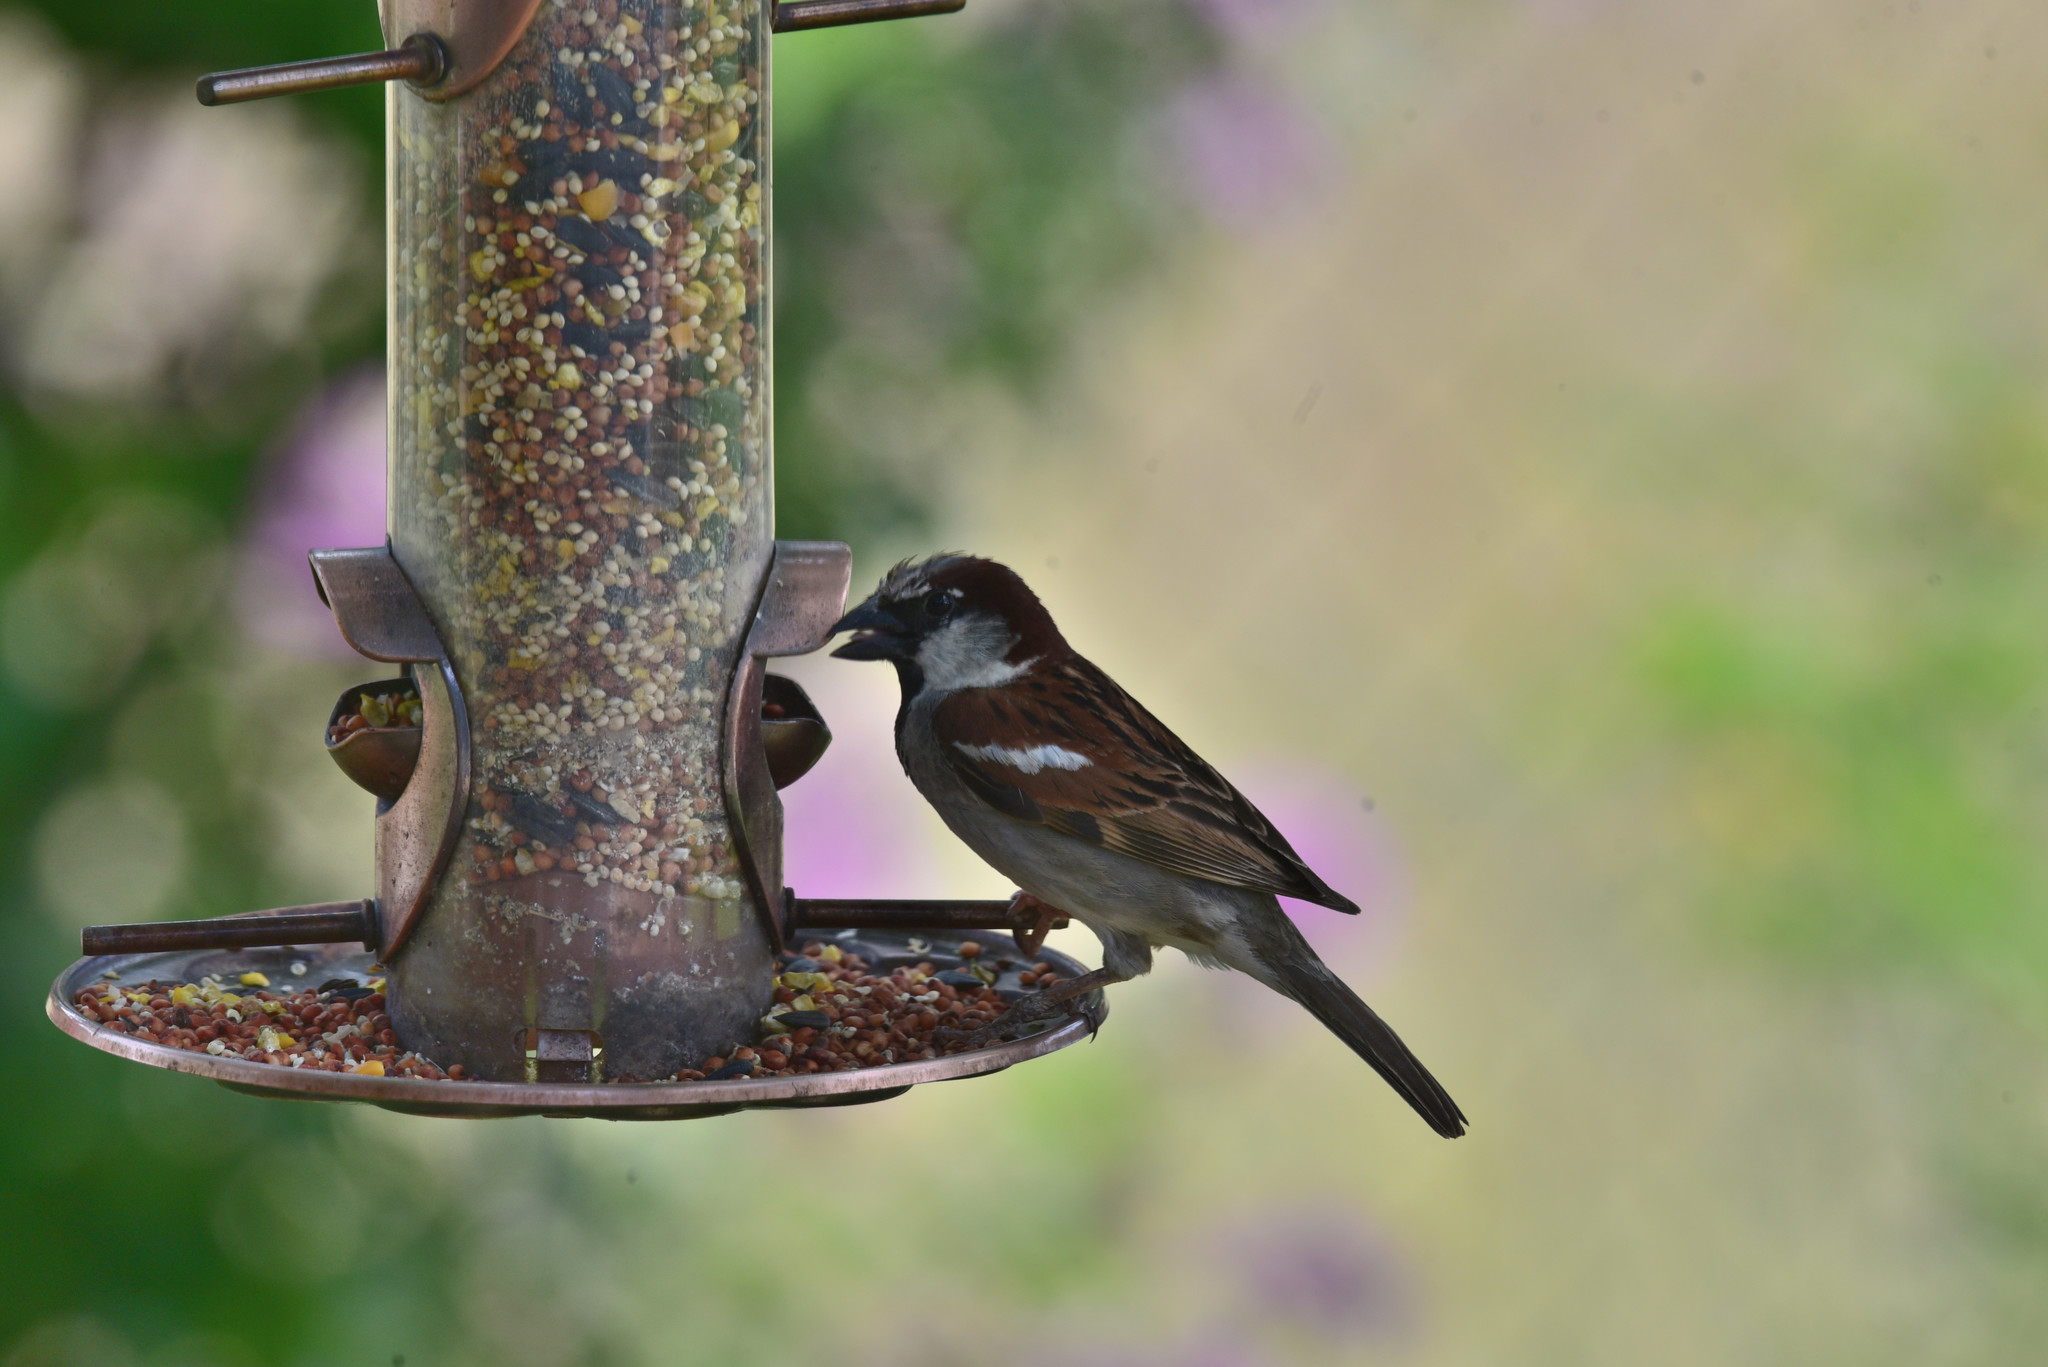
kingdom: Animalia
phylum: Chordata
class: Aves
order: Passeriformes
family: Passeridae
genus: Passer
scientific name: Passer domesticus
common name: House sparrow
